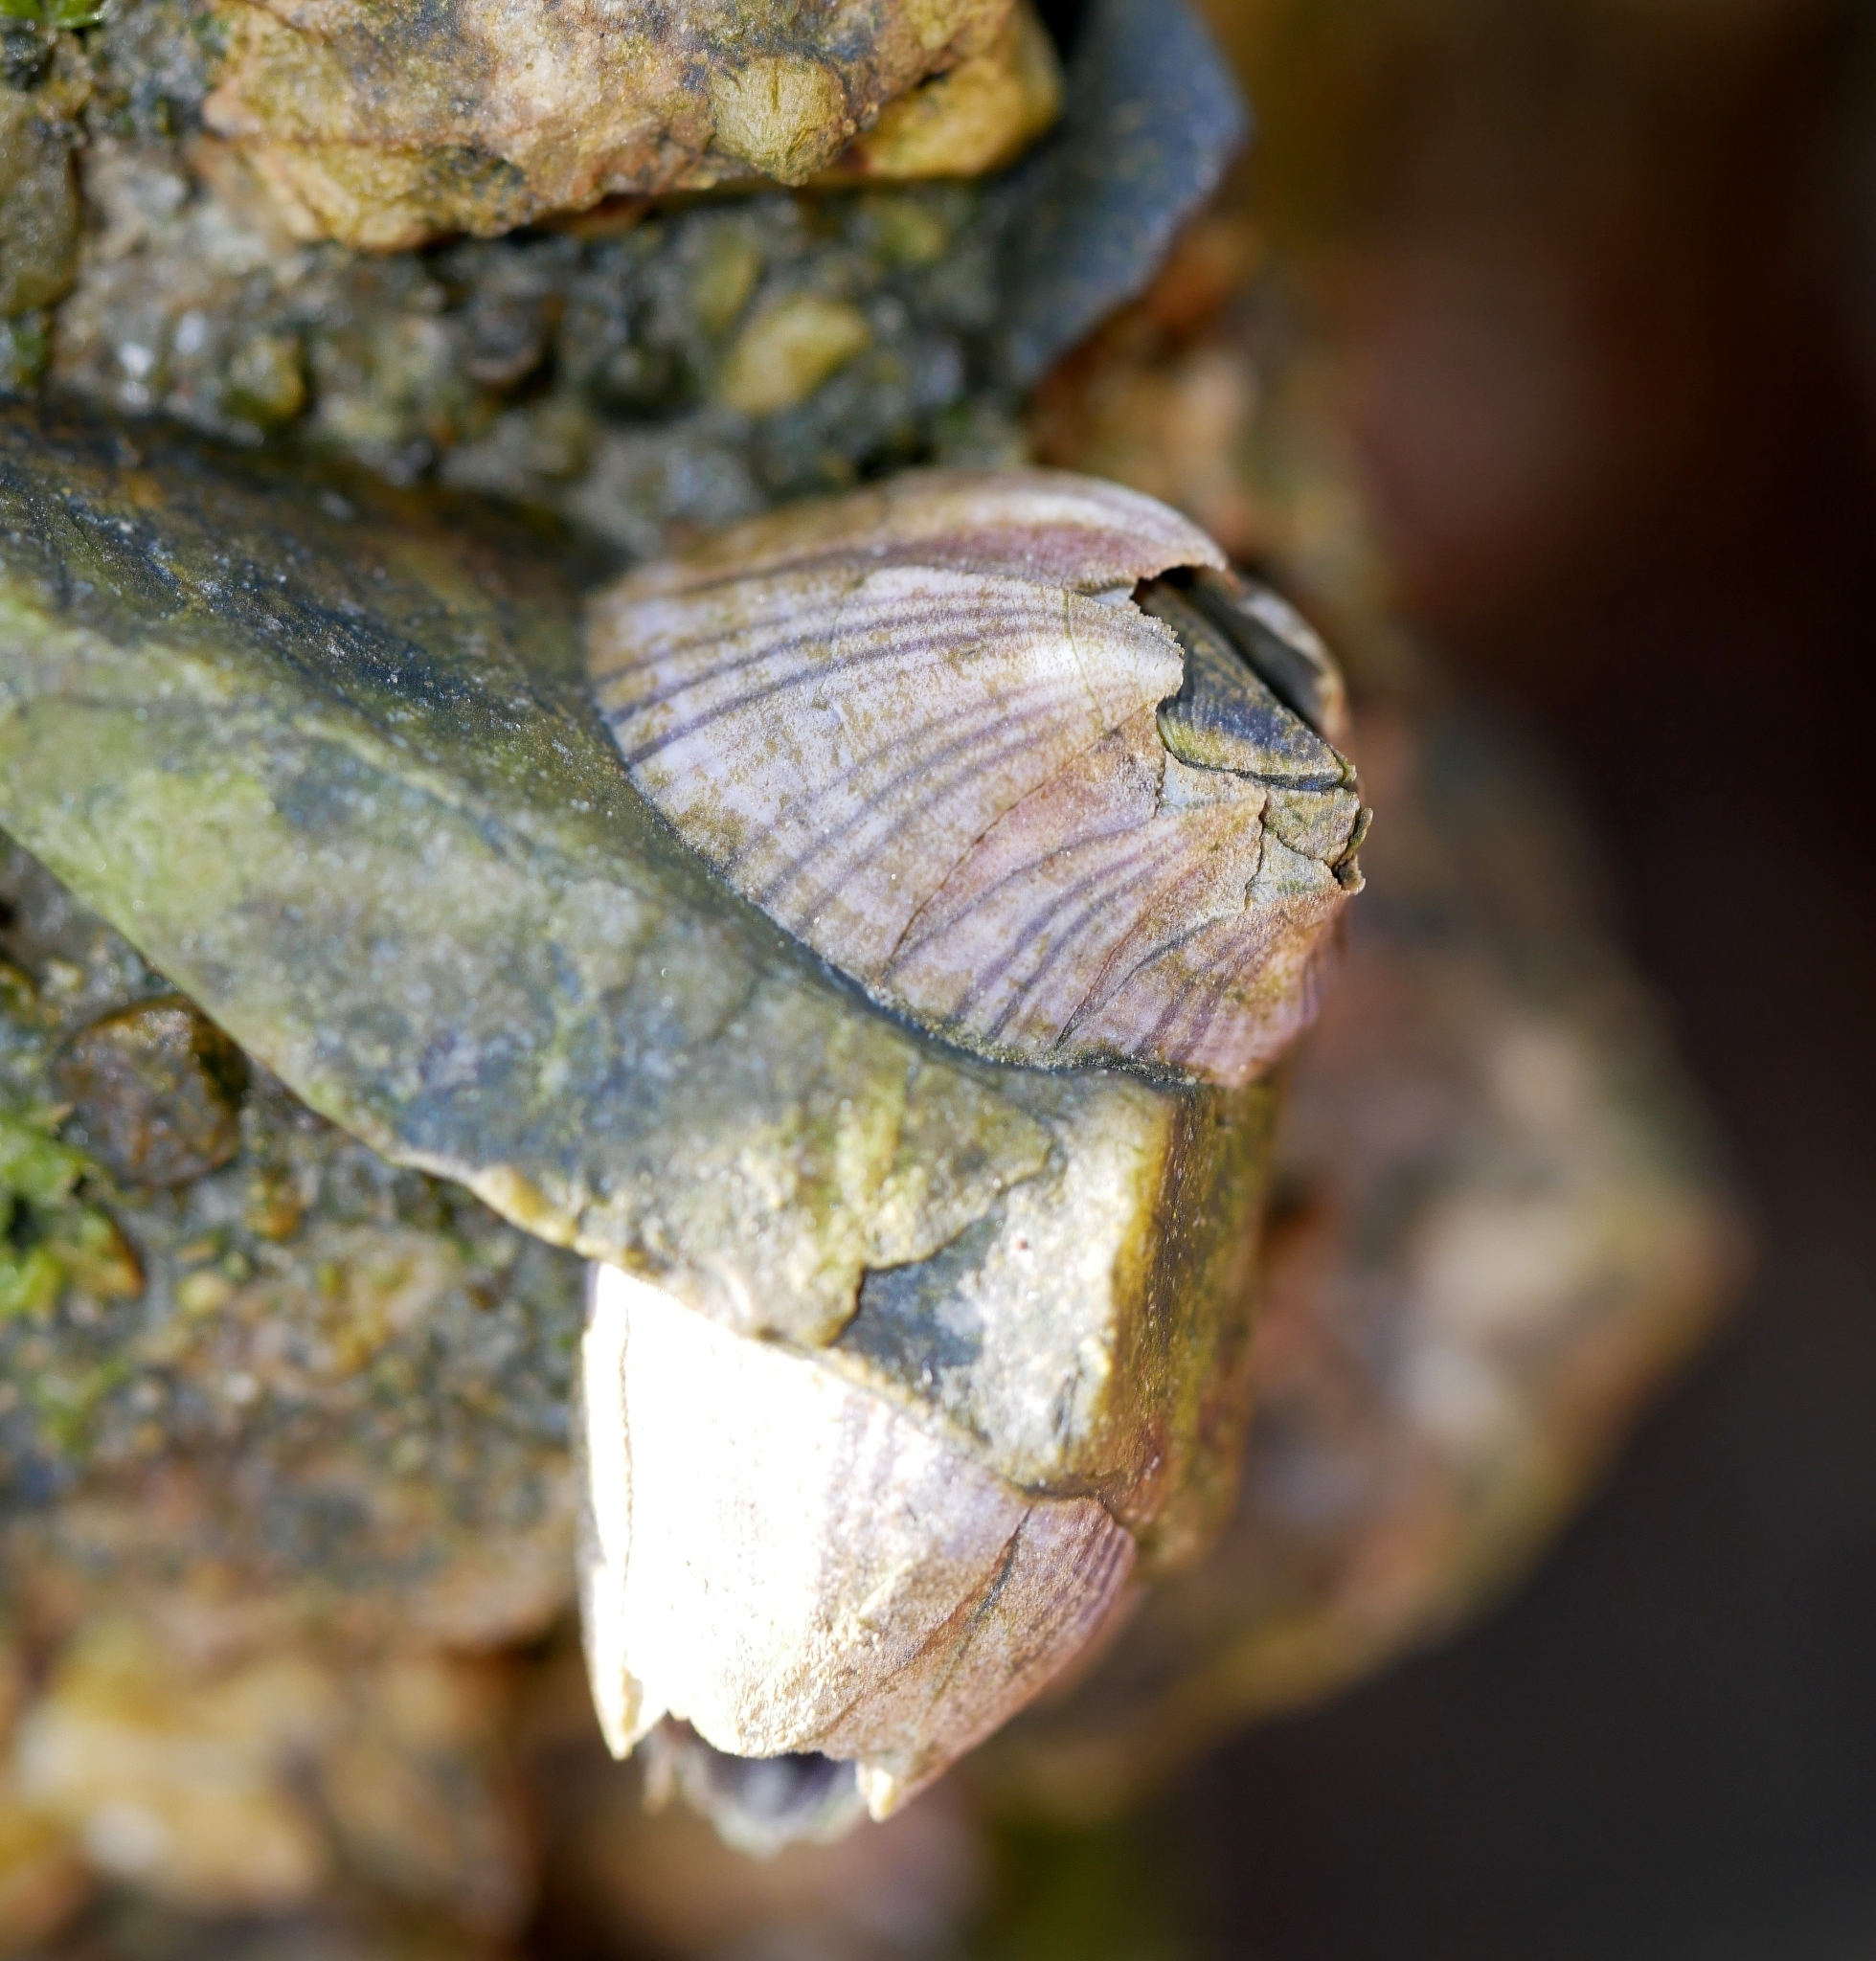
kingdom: Animalia
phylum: Arthropoda
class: Maxillopoda
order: Sessilia
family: Balanidae
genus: Amphibalanus
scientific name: Amphibalanus amphitrite
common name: Striped acorn barnacle
